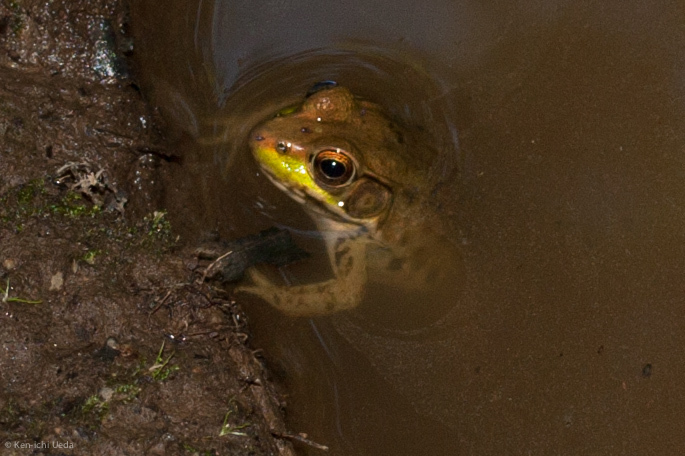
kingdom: Animalia
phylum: Chordata
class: Amphibia
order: Anura
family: Ranidae
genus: Lithobates
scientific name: Lithobates clamitans
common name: Green frog
